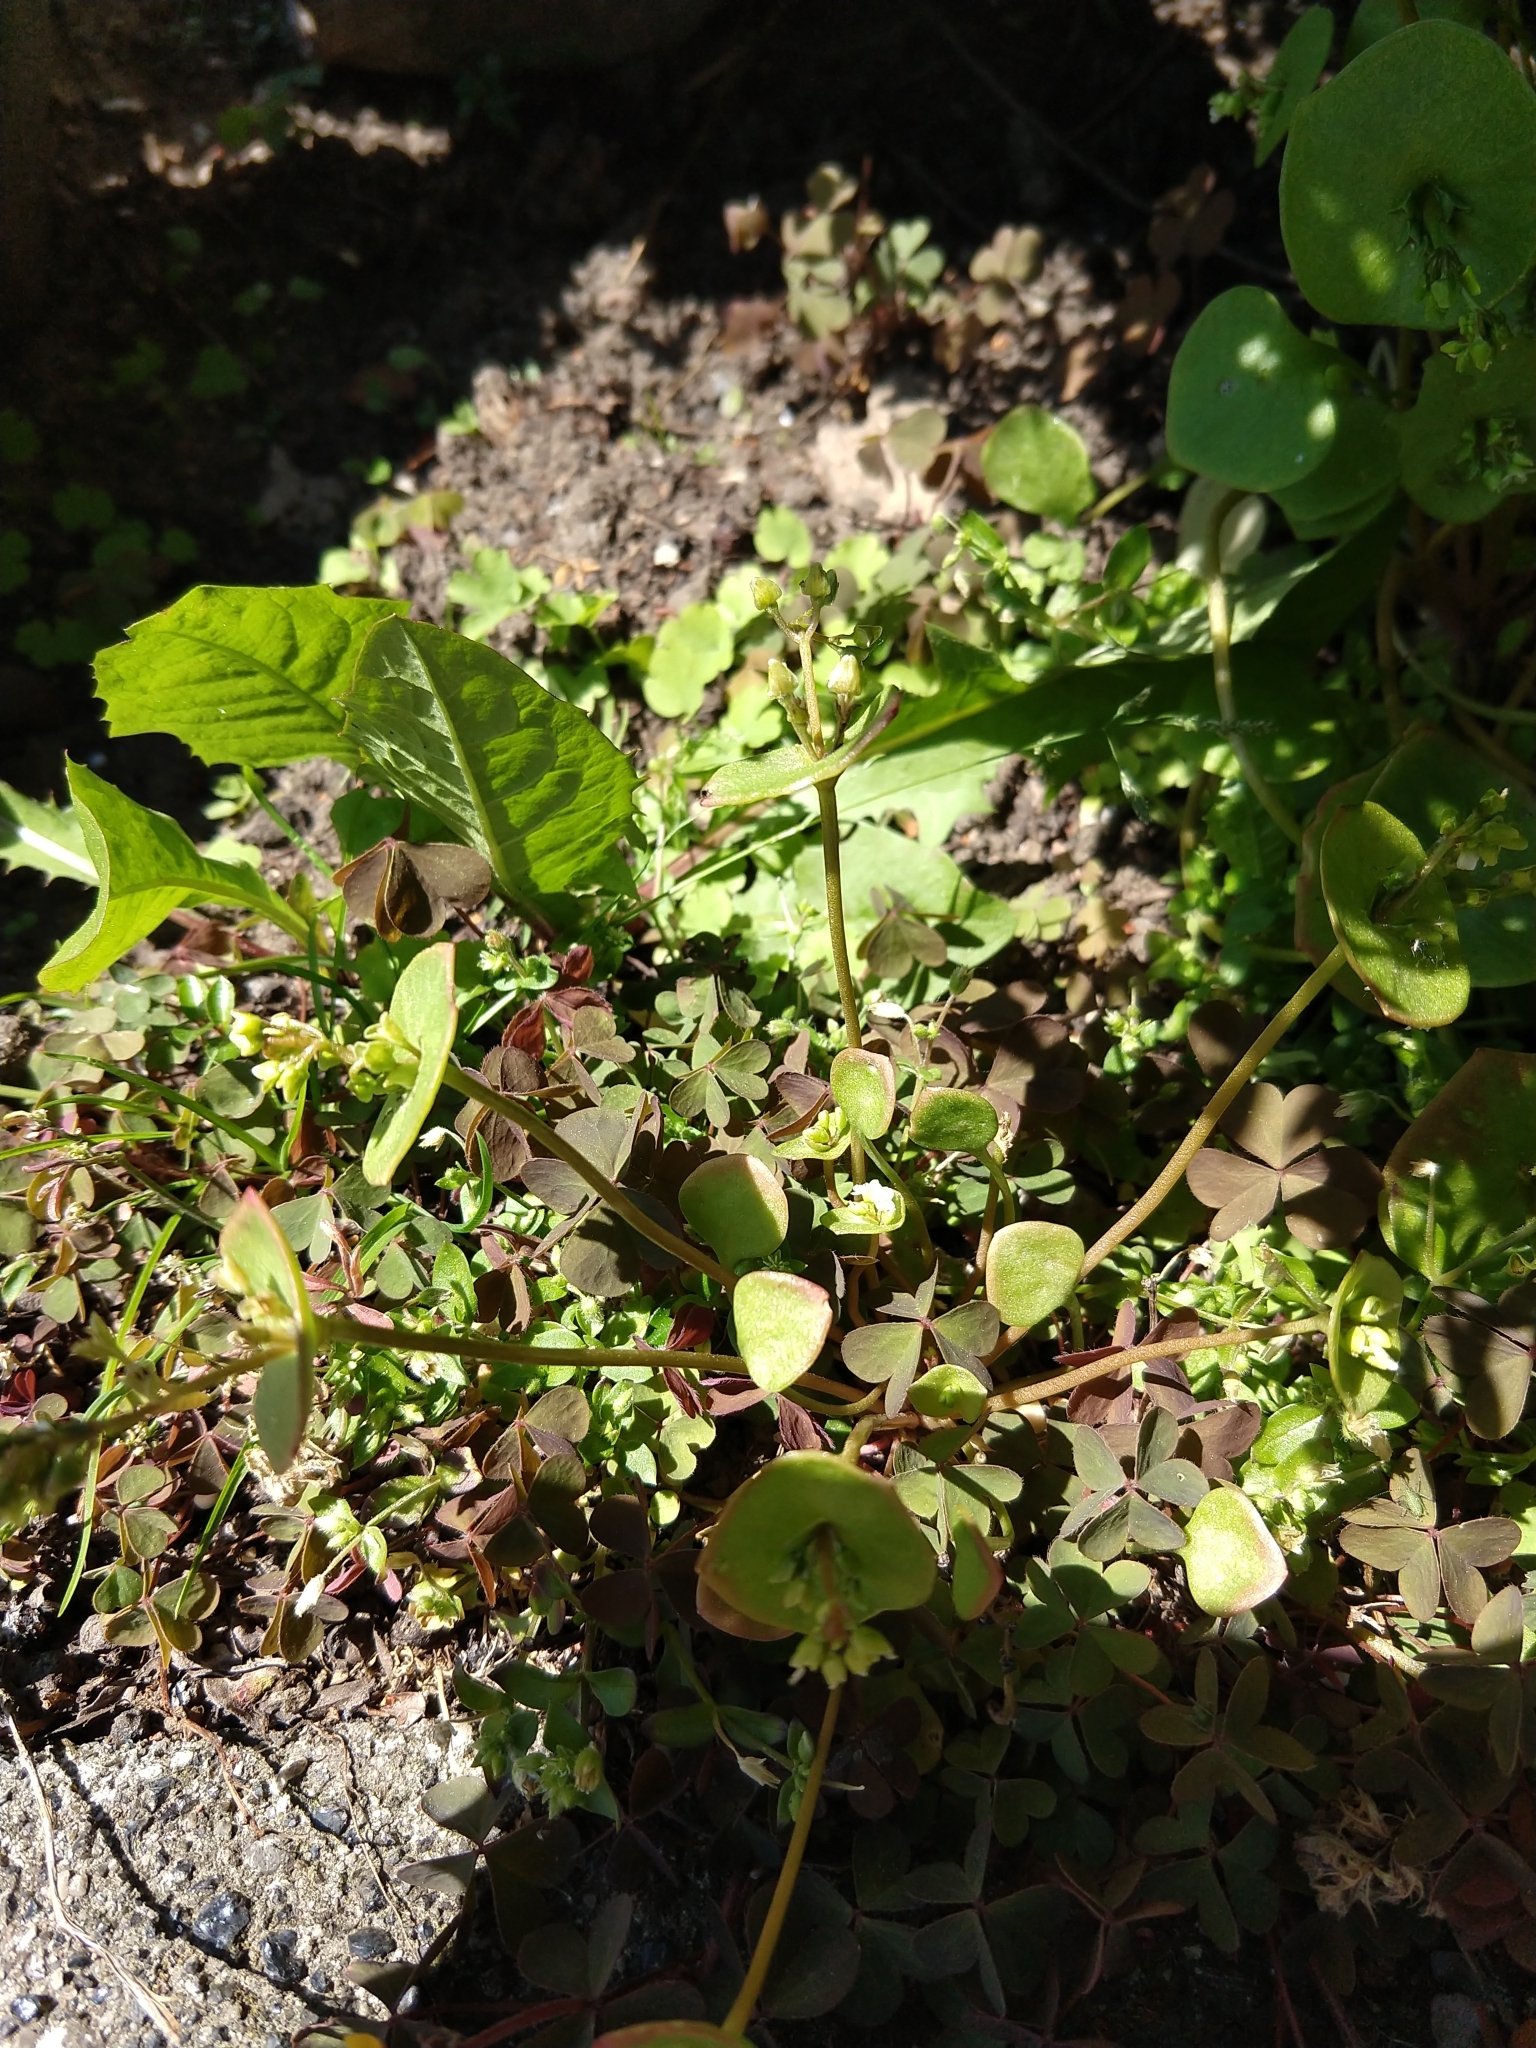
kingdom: Plantae
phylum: Tracheophyta
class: Magnoliopsida
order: Caryophyllales
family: Montiaceae
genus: Claytonia
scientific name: Claytonia perfoliata
